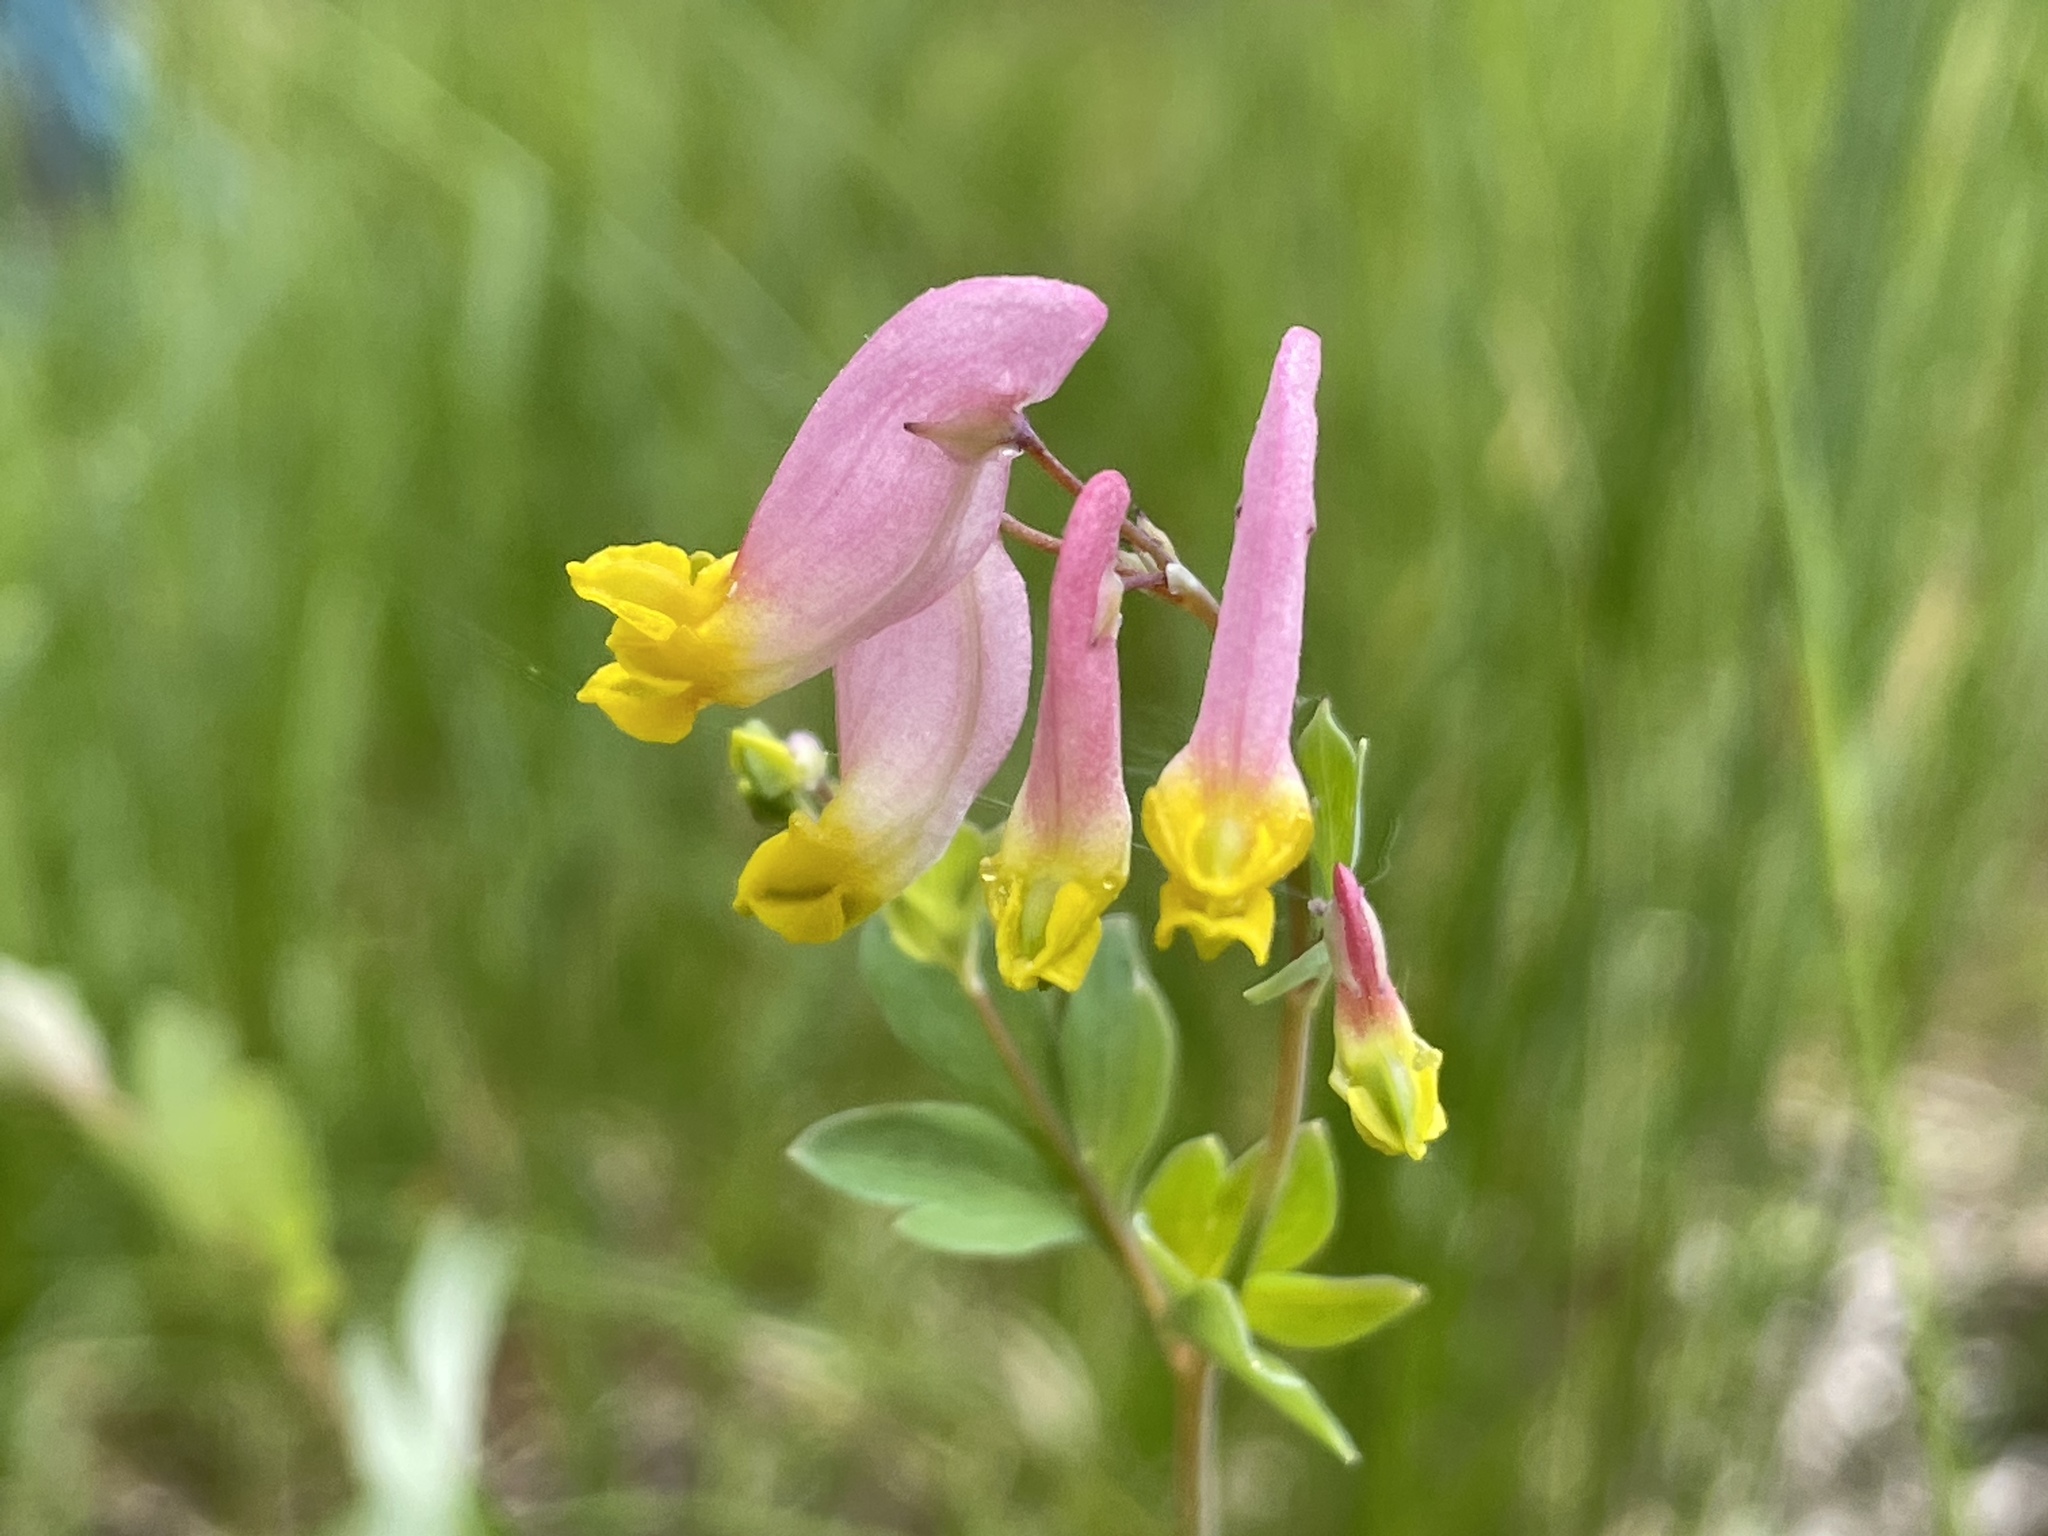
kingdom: Plantae
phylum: Tracheophyta
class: Magnoliopsida
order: Ranunculales
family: Papaveraceae
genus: Capnoides
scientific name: Capnoides sempervirens
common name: Rock harlequin
